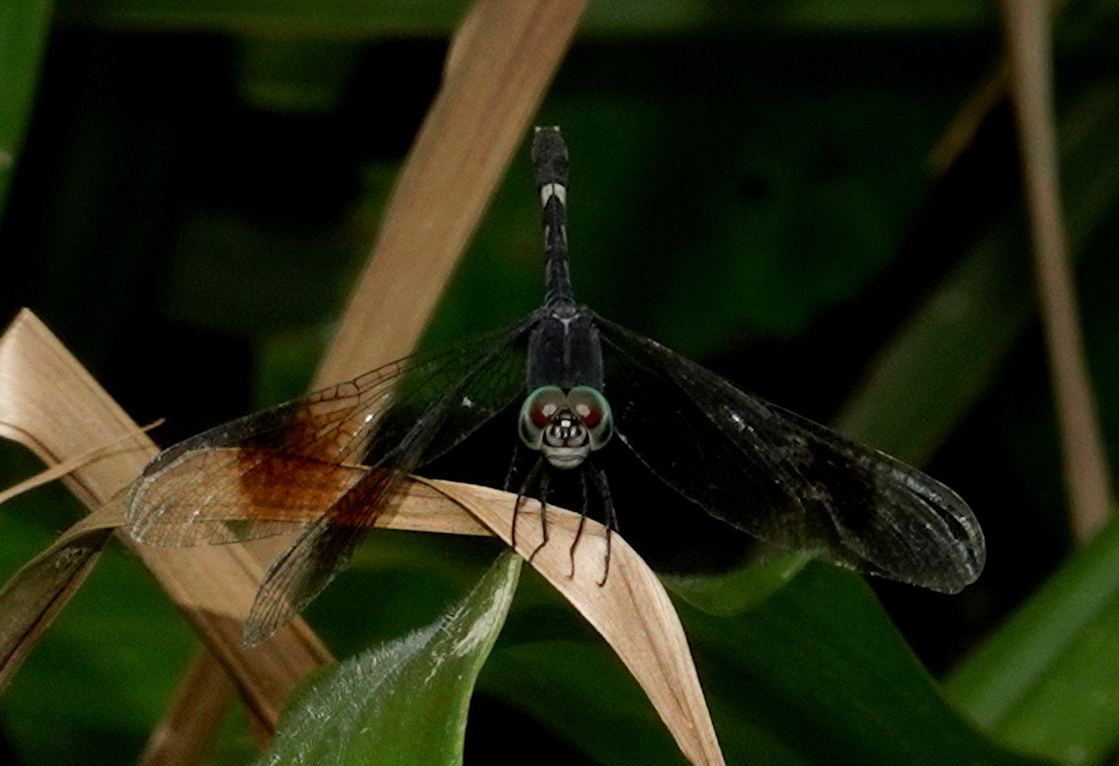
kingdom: Animalia
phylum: Arthropoda
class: Insecta
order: Odonata
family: Libellulidae
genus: Erythrodiplax
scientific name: Erythrodiplax attenuata
